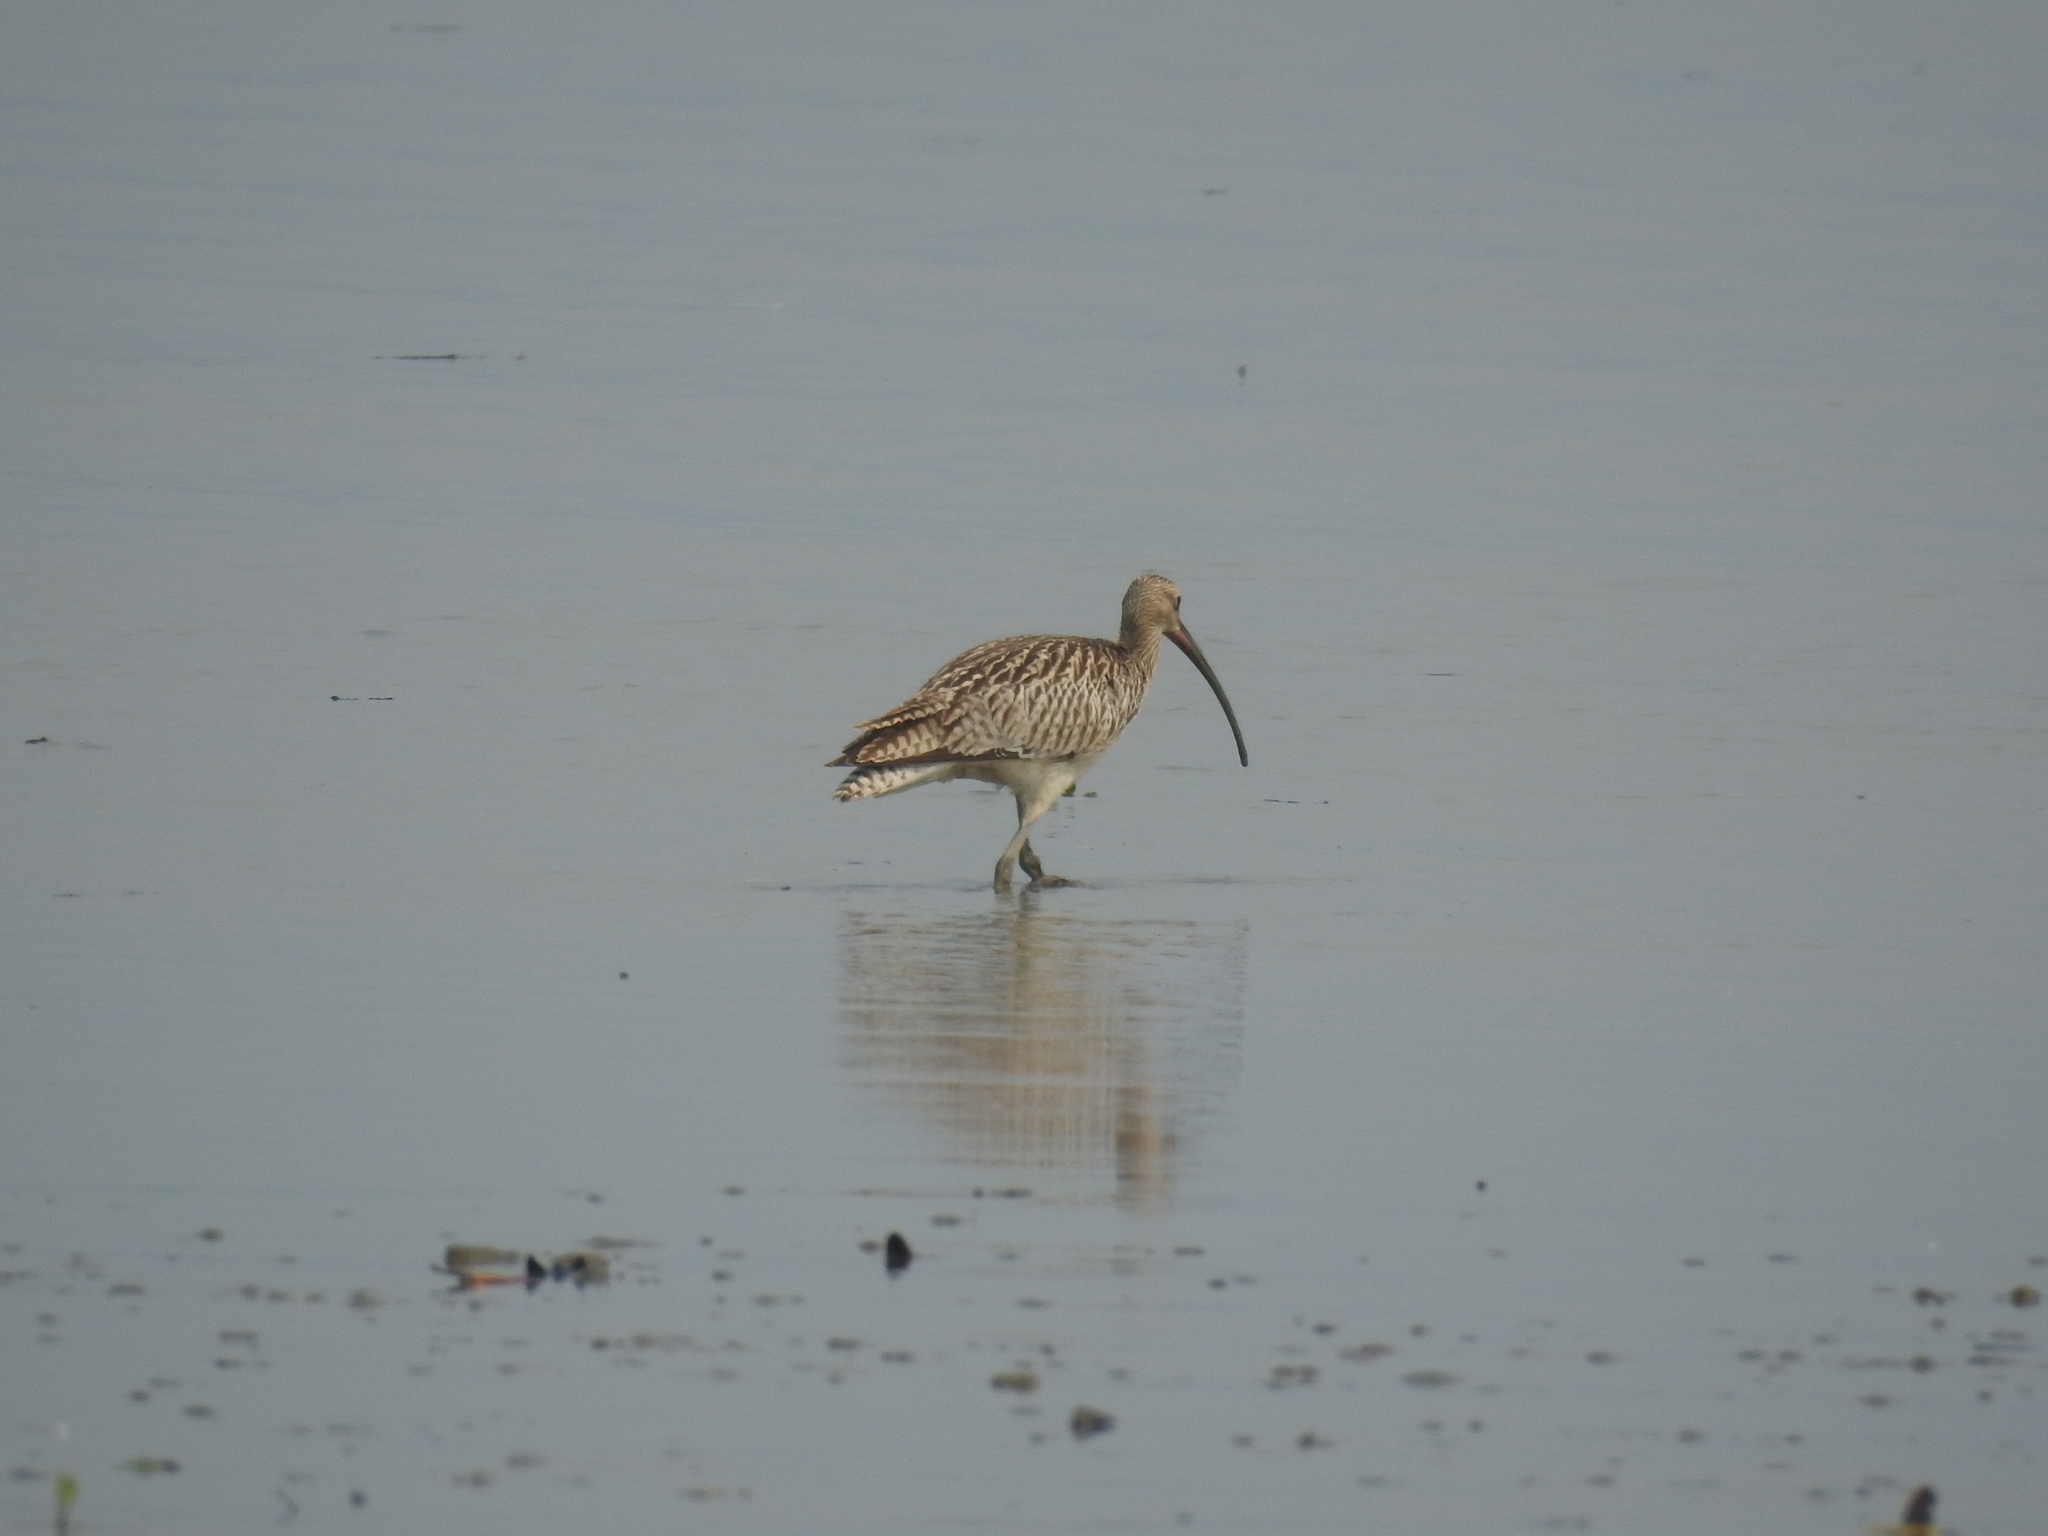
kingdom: Animalia
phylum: Chordata
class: Aves
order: Charadriiformes
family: Scolopacidae
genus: Numenius
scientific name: Numenius arquata
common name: Eurasian curlew
